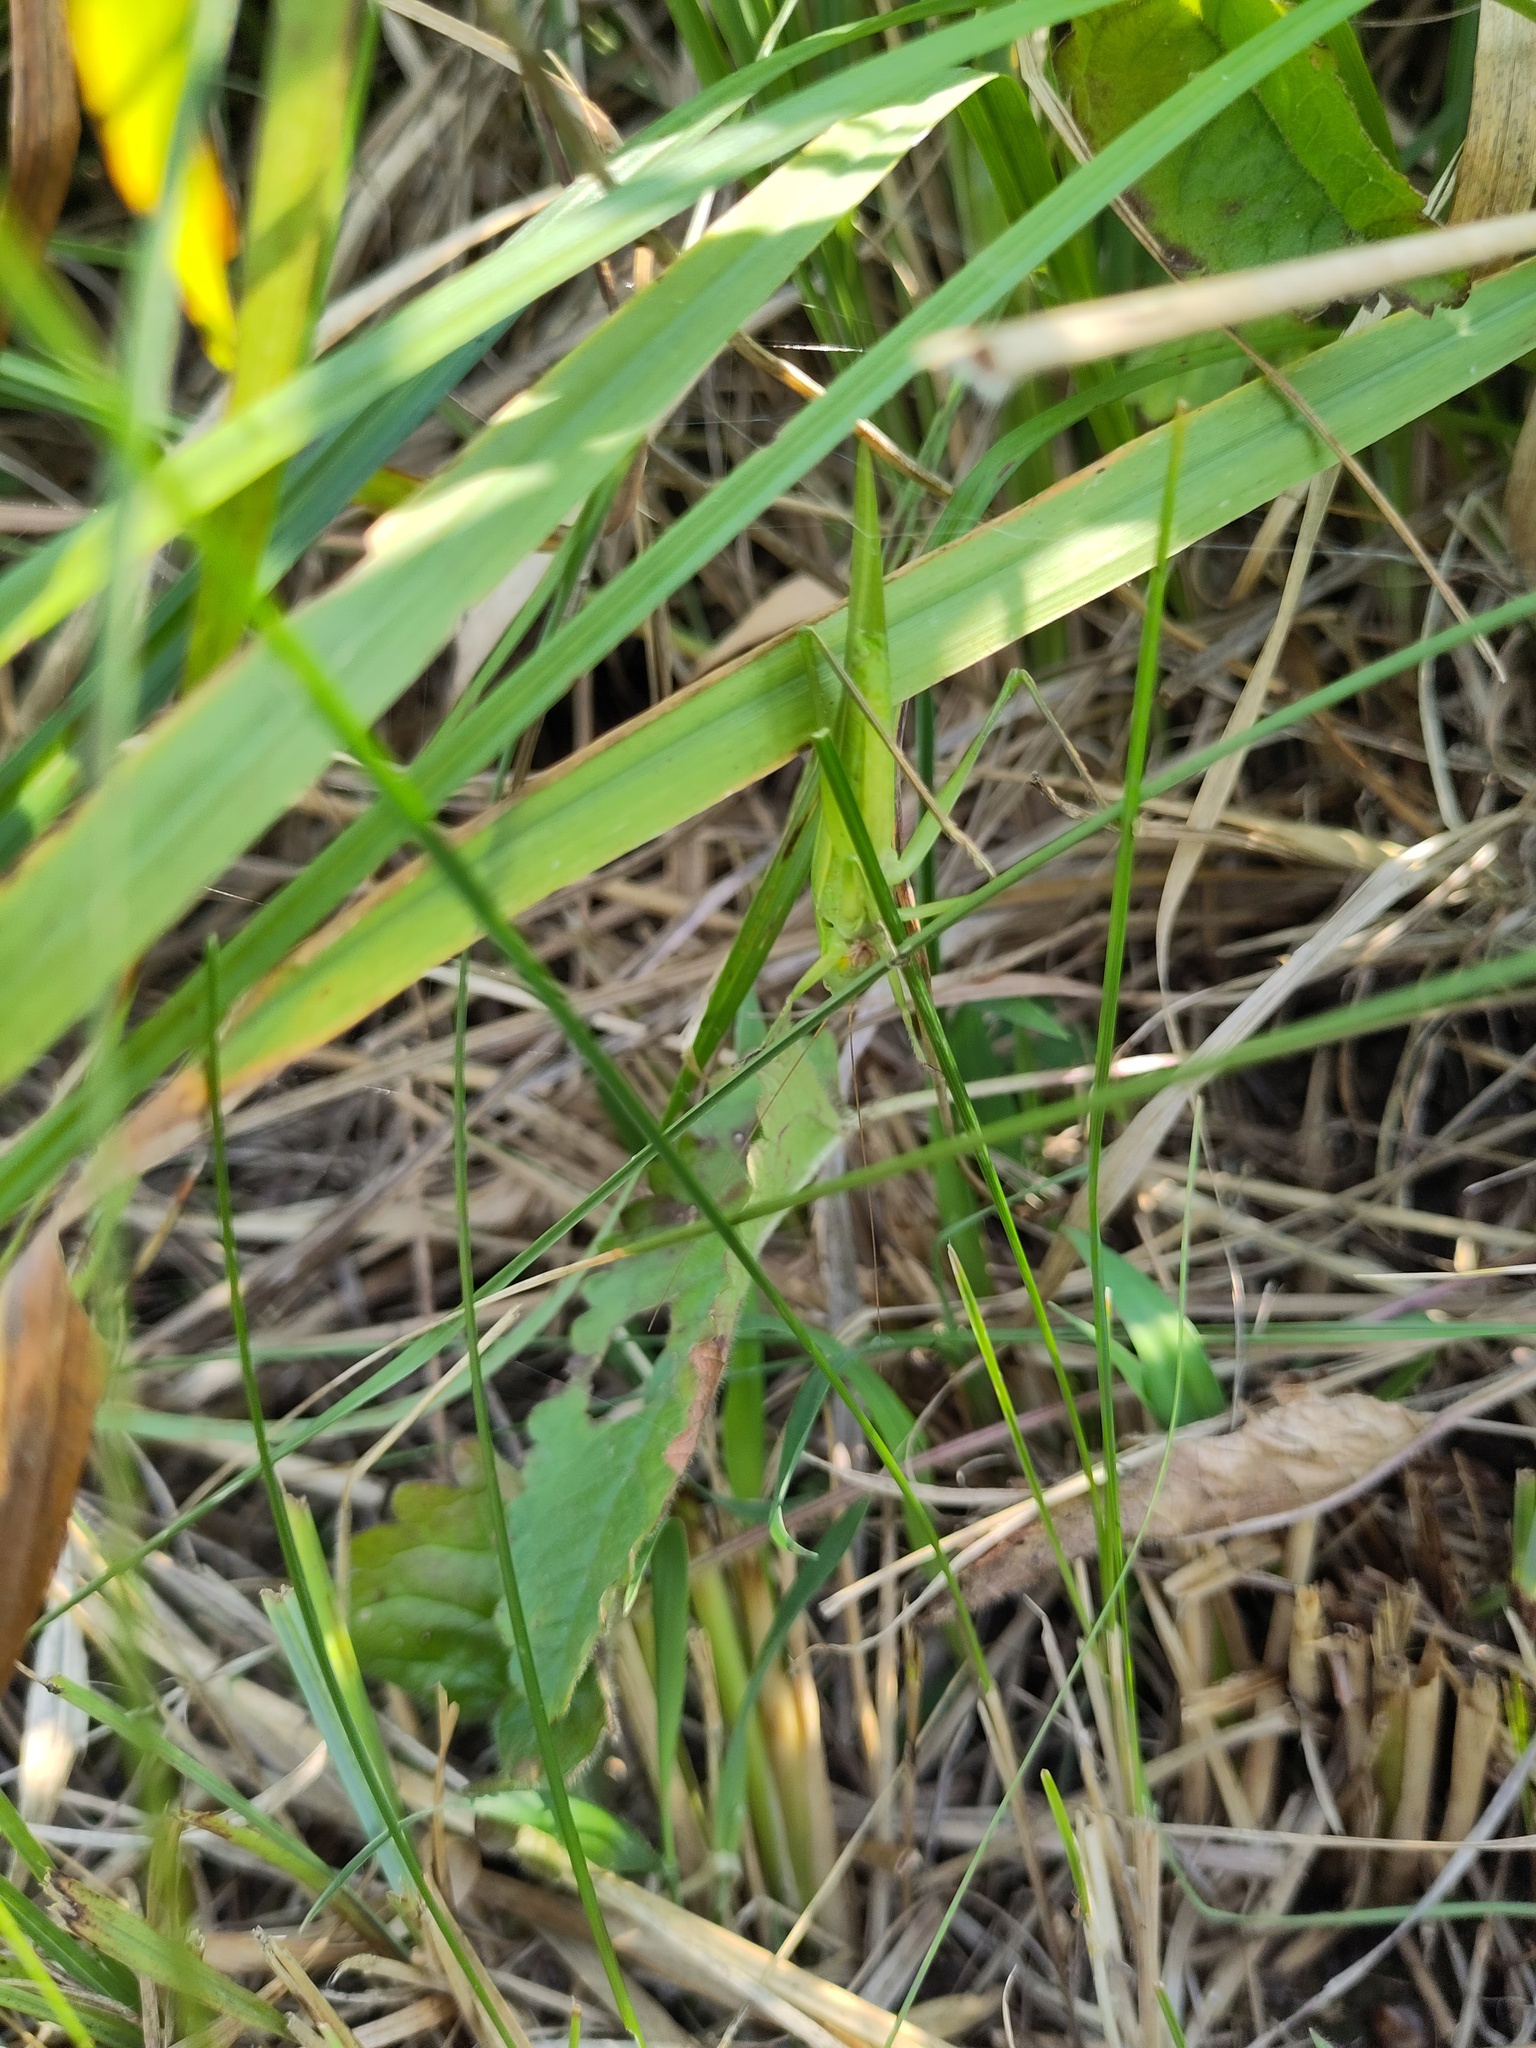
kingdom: Animalia
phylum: Arthropoda
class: Insecta
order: Orthoptera
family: Tettigoniidae
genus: Ruspolia
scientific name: Ruspolia nitidula
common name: Large conehead
